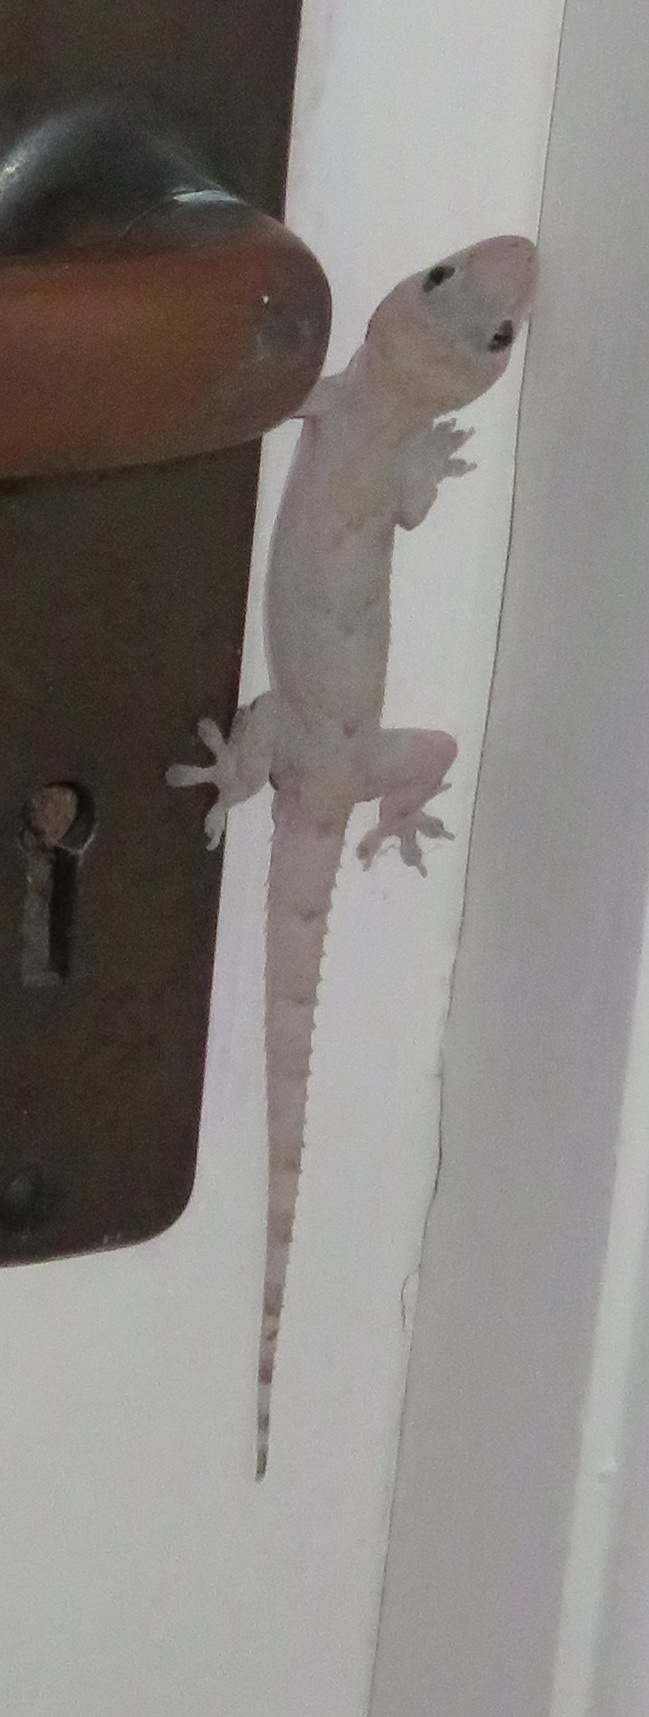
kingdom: Animalia
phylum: Chordata
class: Squamata
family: Gekkonidae
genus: Hemidactylus
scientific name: Hemidactylus mabouia
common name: House gecko
